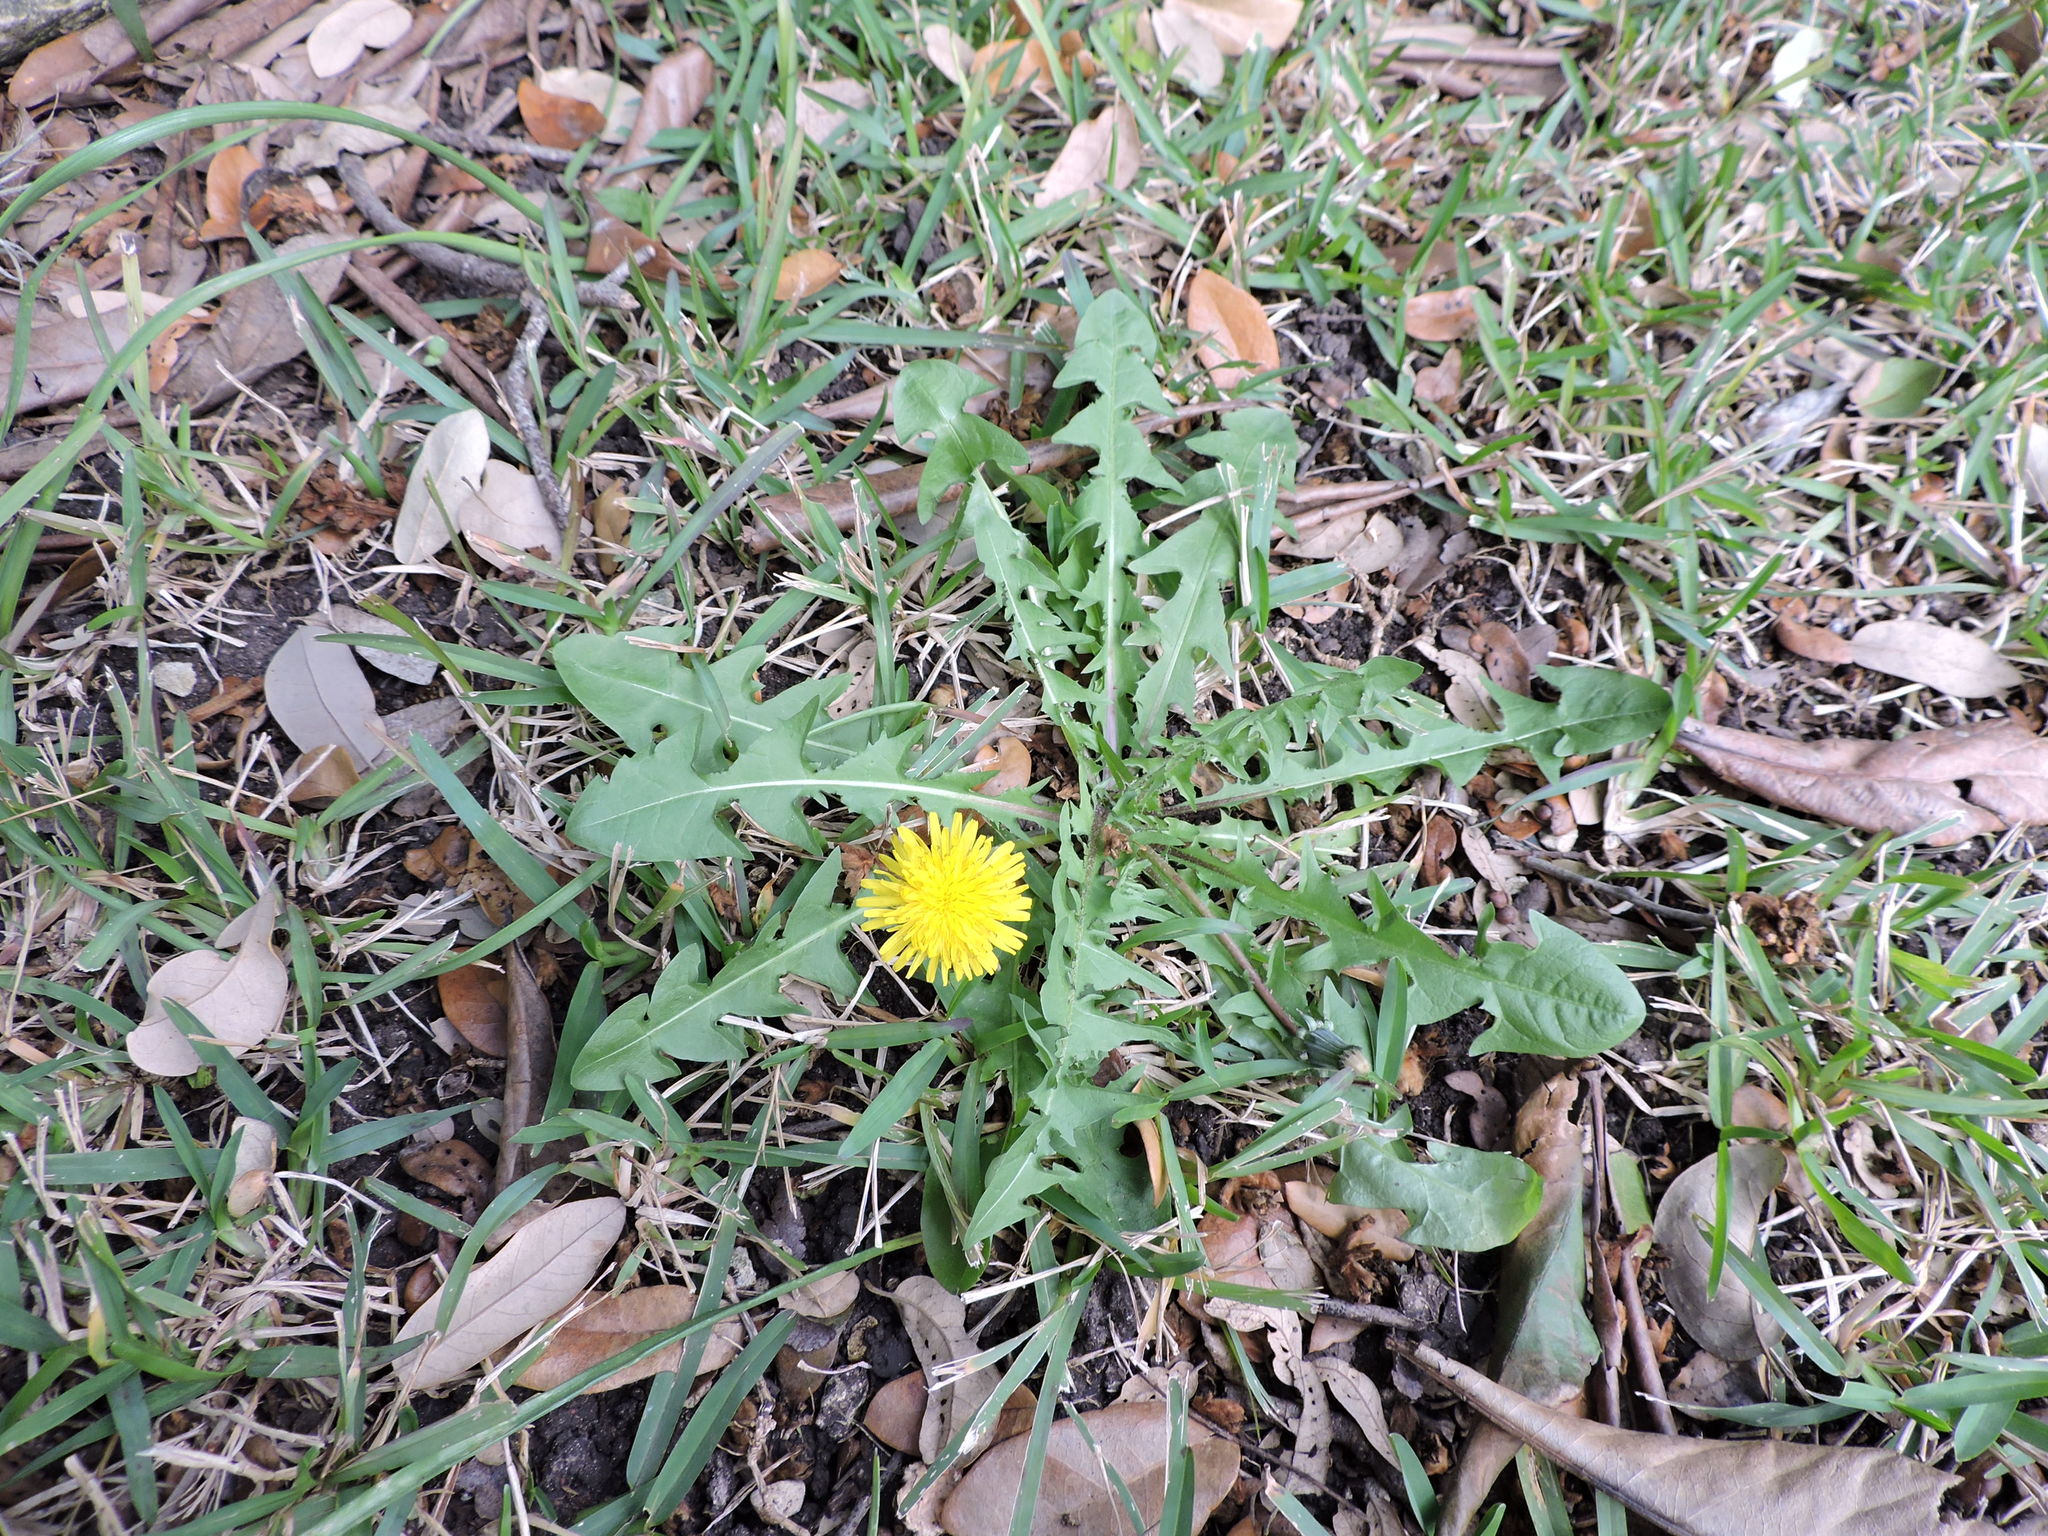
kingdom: Plantae
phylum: Tracheophyta
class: Magnoliopsida
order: Asterales
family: Asteraceae
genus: Taraxacum
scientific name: Taraxacum officinale
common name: Common dandelion
